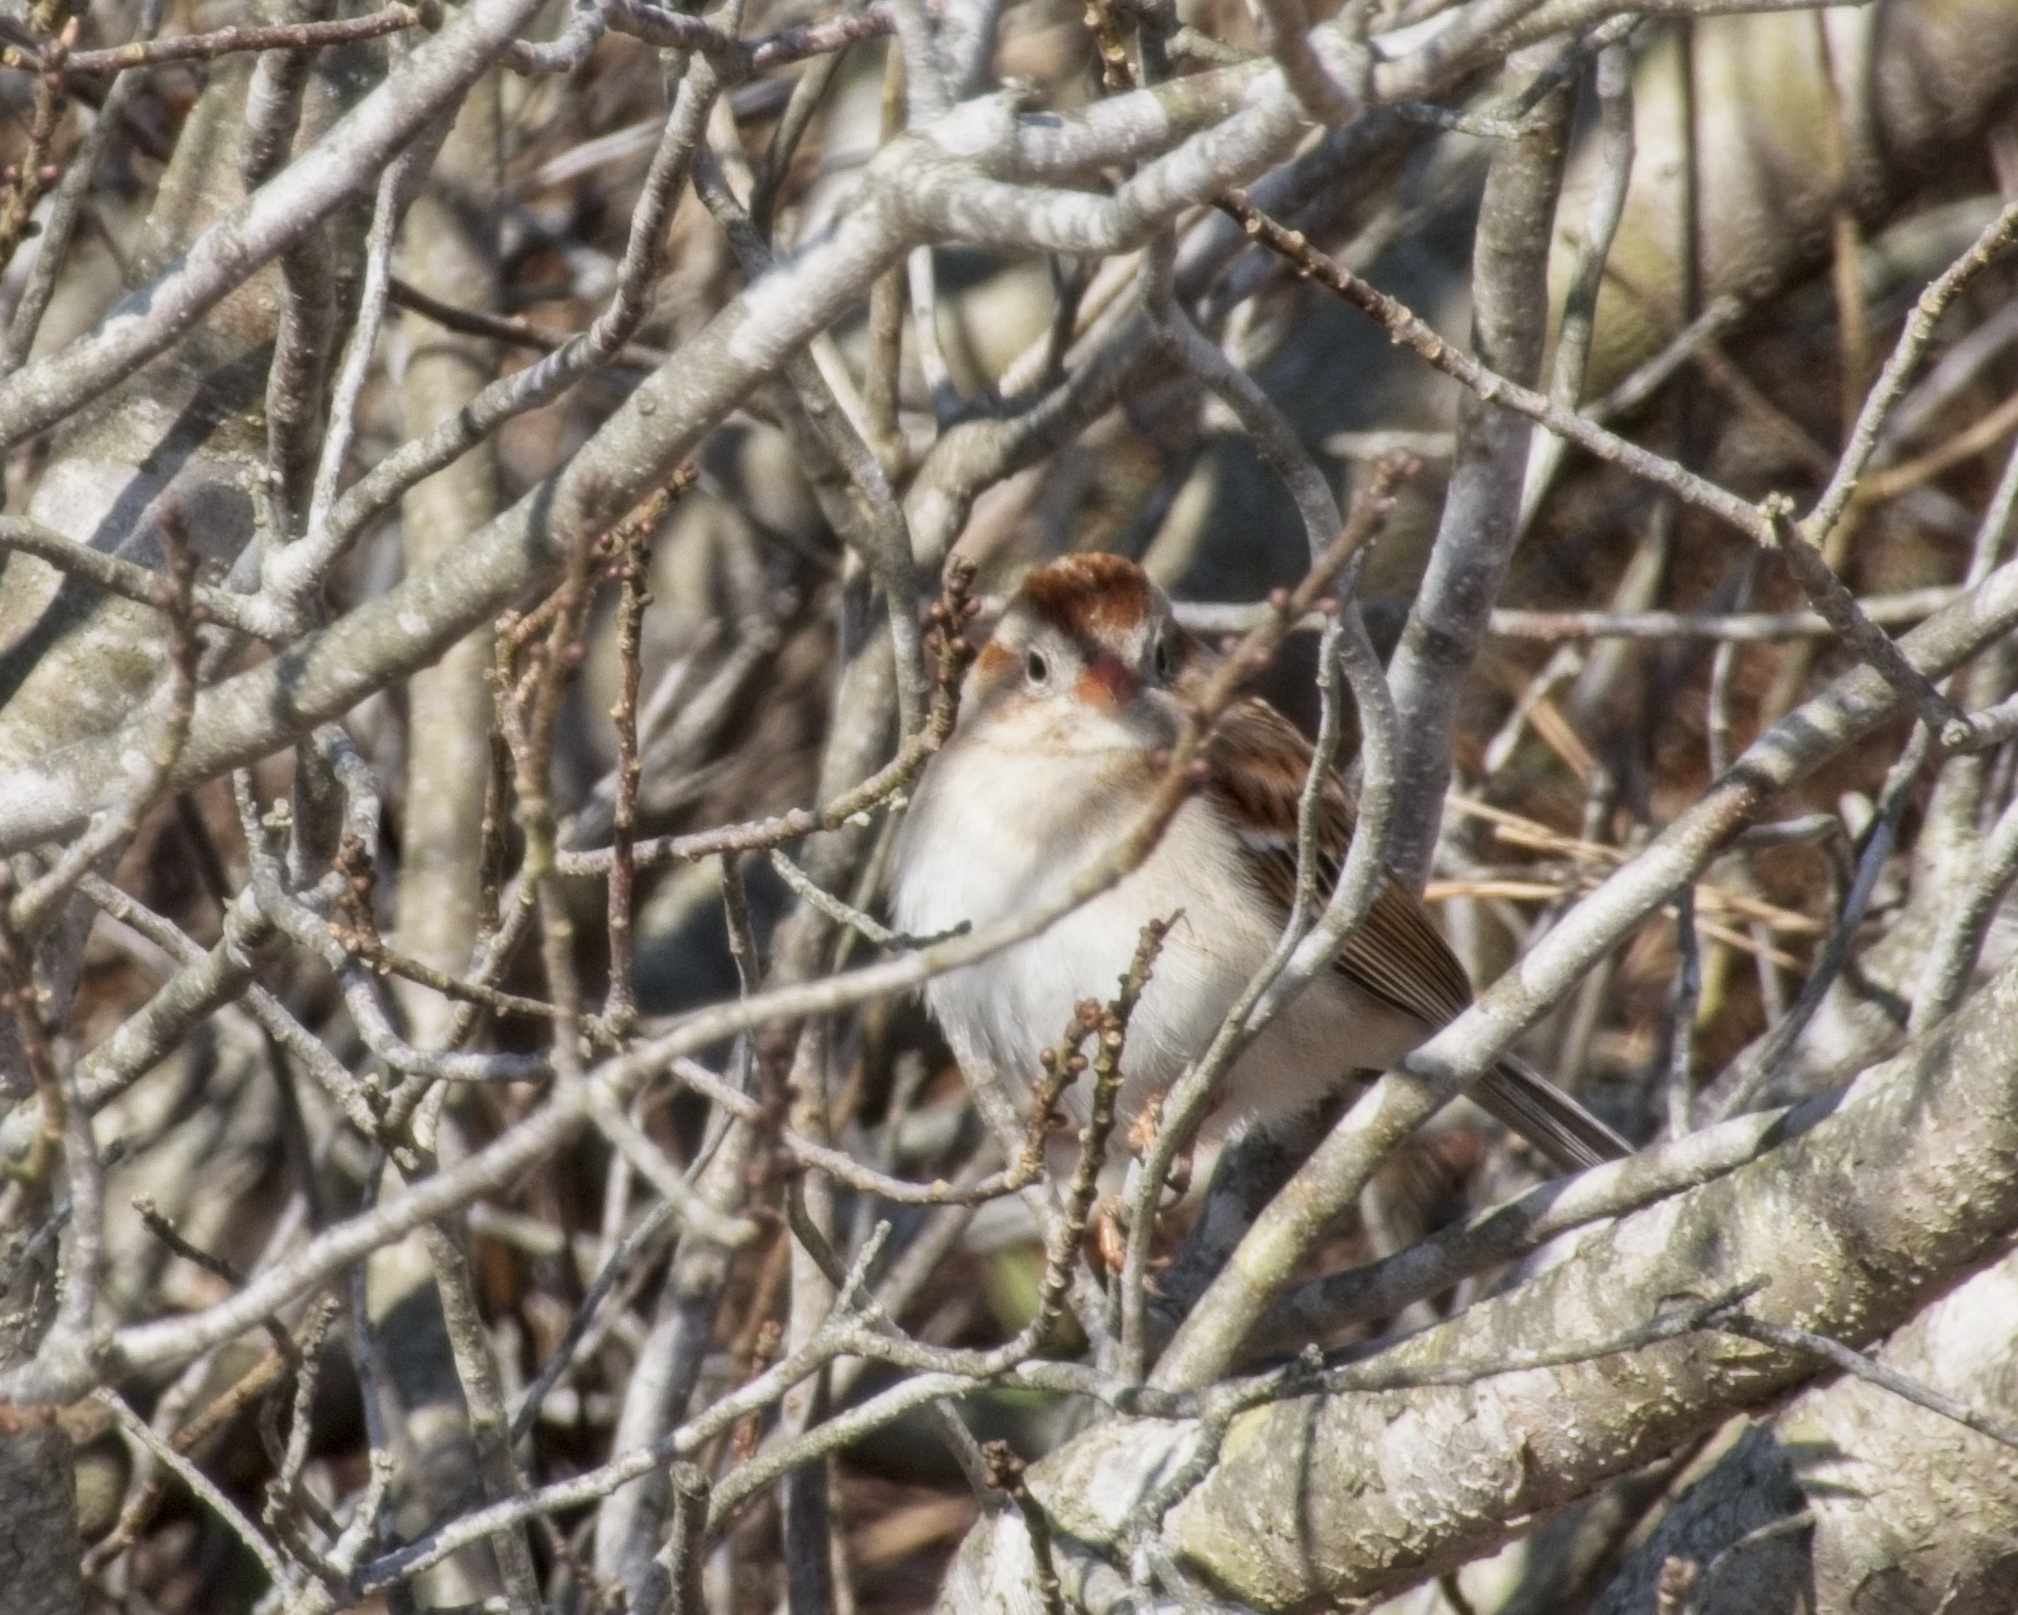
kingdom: Animalia
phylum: Chordata
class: Aves
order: Passeriformes
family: Passerellidae
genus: Spizella
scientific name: Spizella pusilla
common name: Field sparrow
